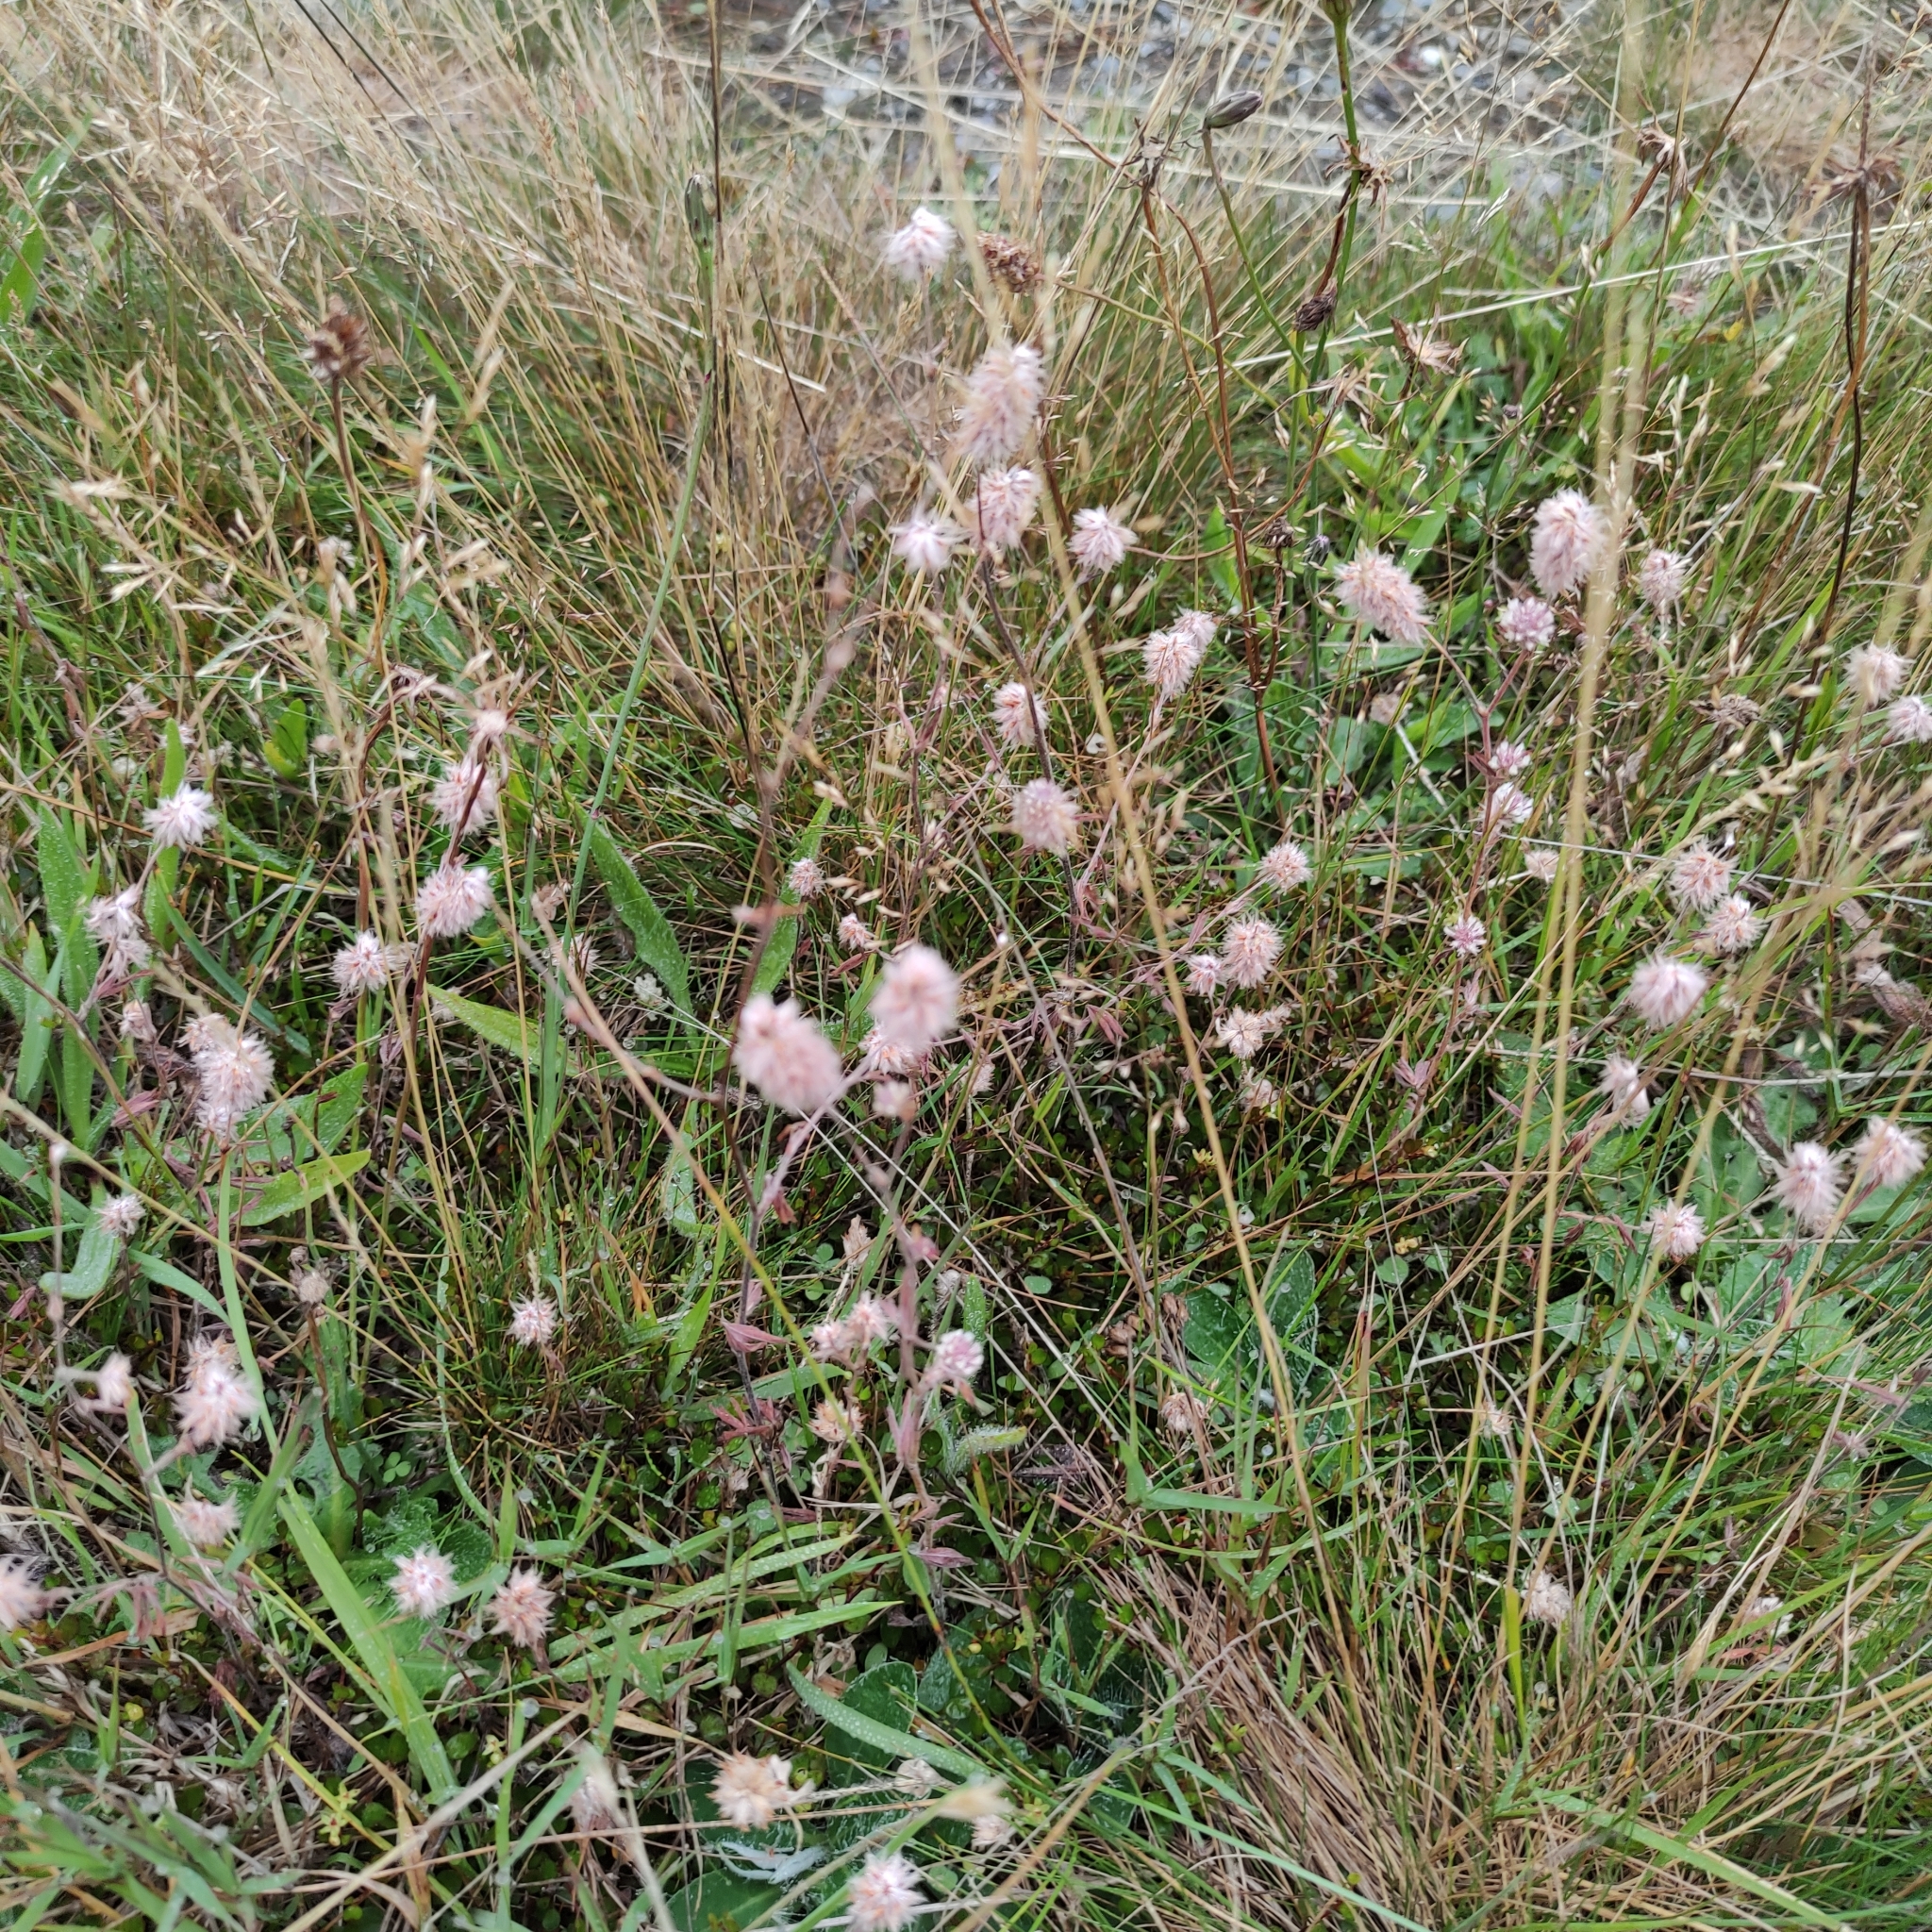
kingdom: Plantae
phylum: Tracheophyta
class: Magnoliopsida
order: Fabales
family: Fabaceae
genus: Trifolium
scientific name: Trifolium arvense
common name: Hare's-foot clover
